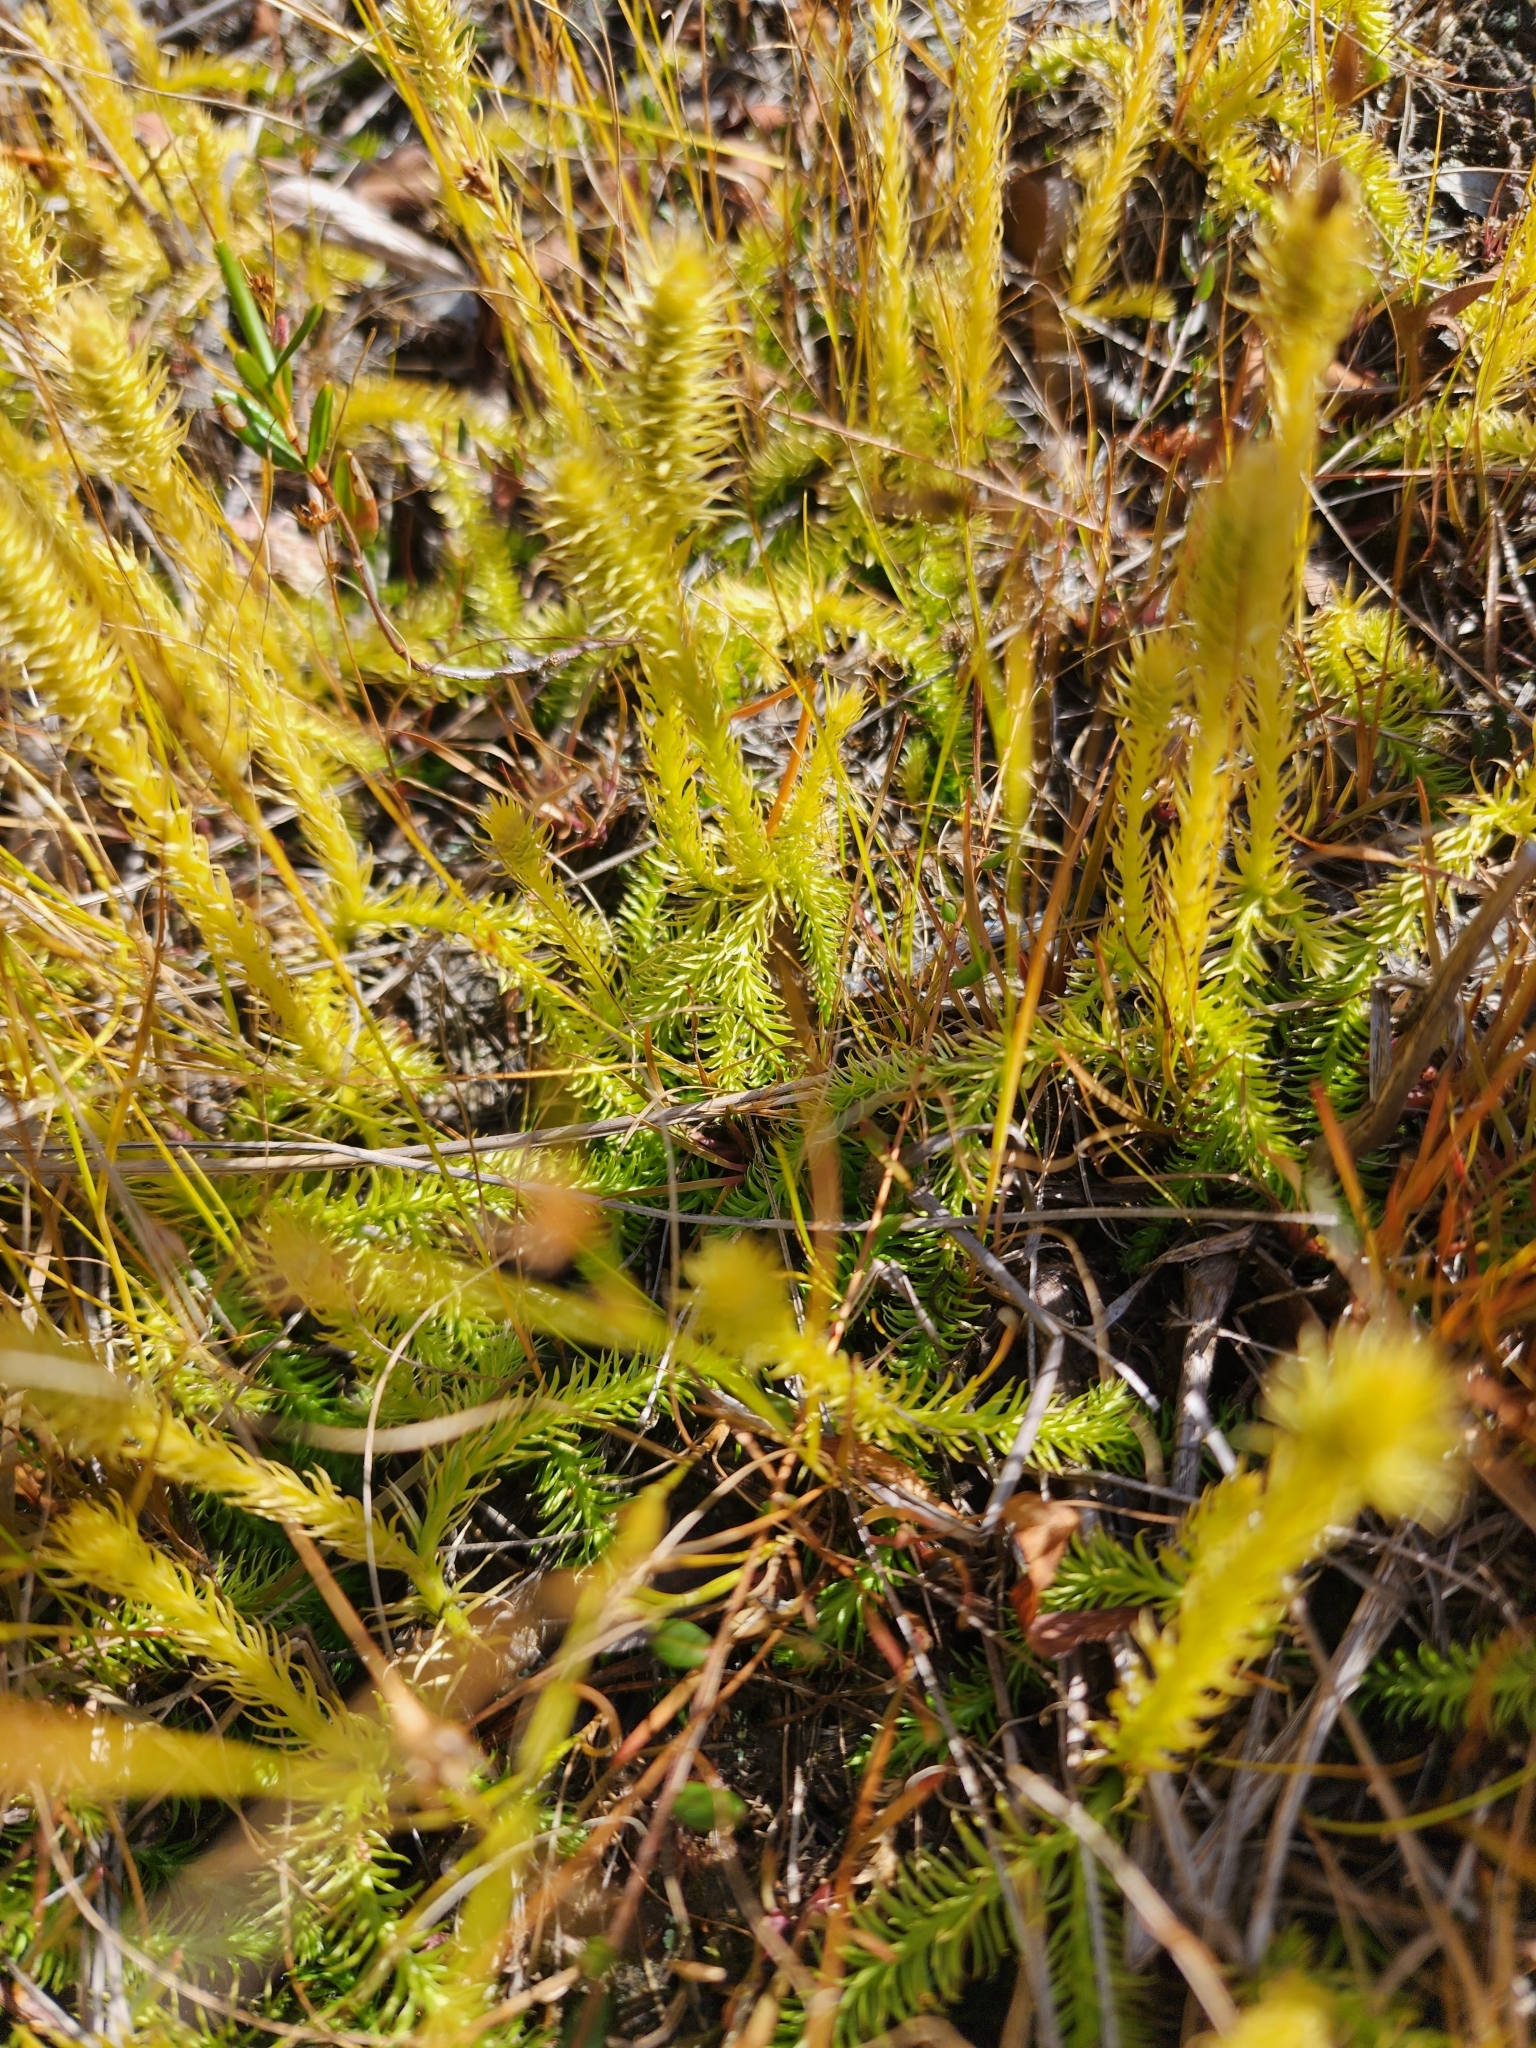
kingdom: Plantae
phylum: Tracheophyta
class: Lycopodiopsida
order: Lycopodiales
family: Lycopodiaceae
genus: Lycopodiella
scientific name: Lycopodiella inundata
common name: Marsh clubmoss
